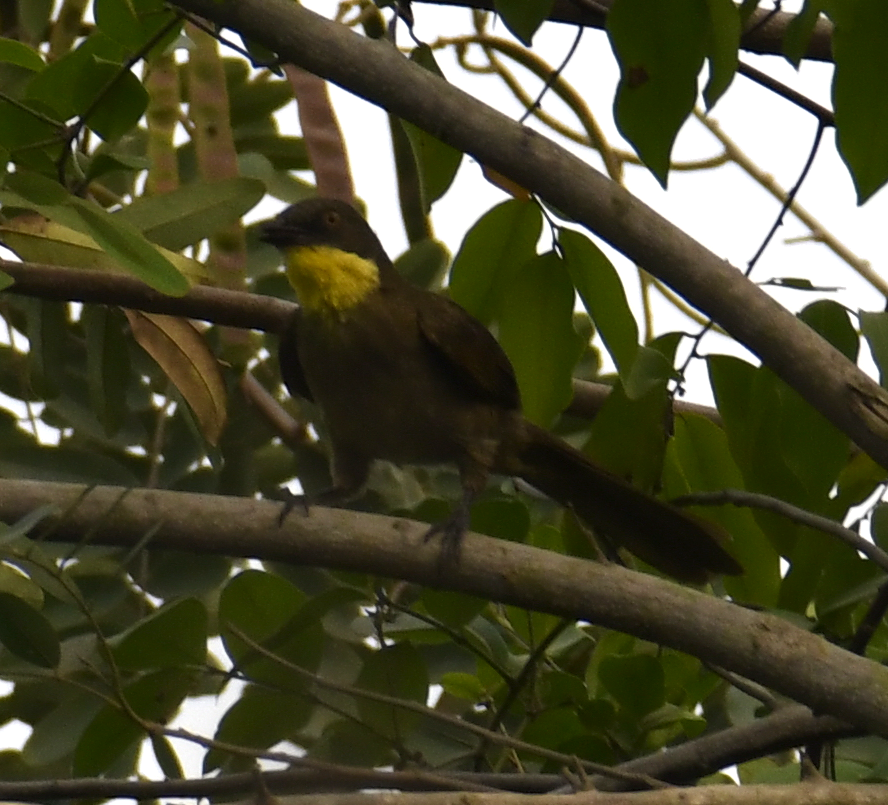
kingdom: Animalia
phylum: Chordata
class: Aves
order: Passeriformes
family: Pycnonotidae
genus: Atimastillas
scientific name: Atimastillas flavicollis
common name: Yellow-throated leaflove
